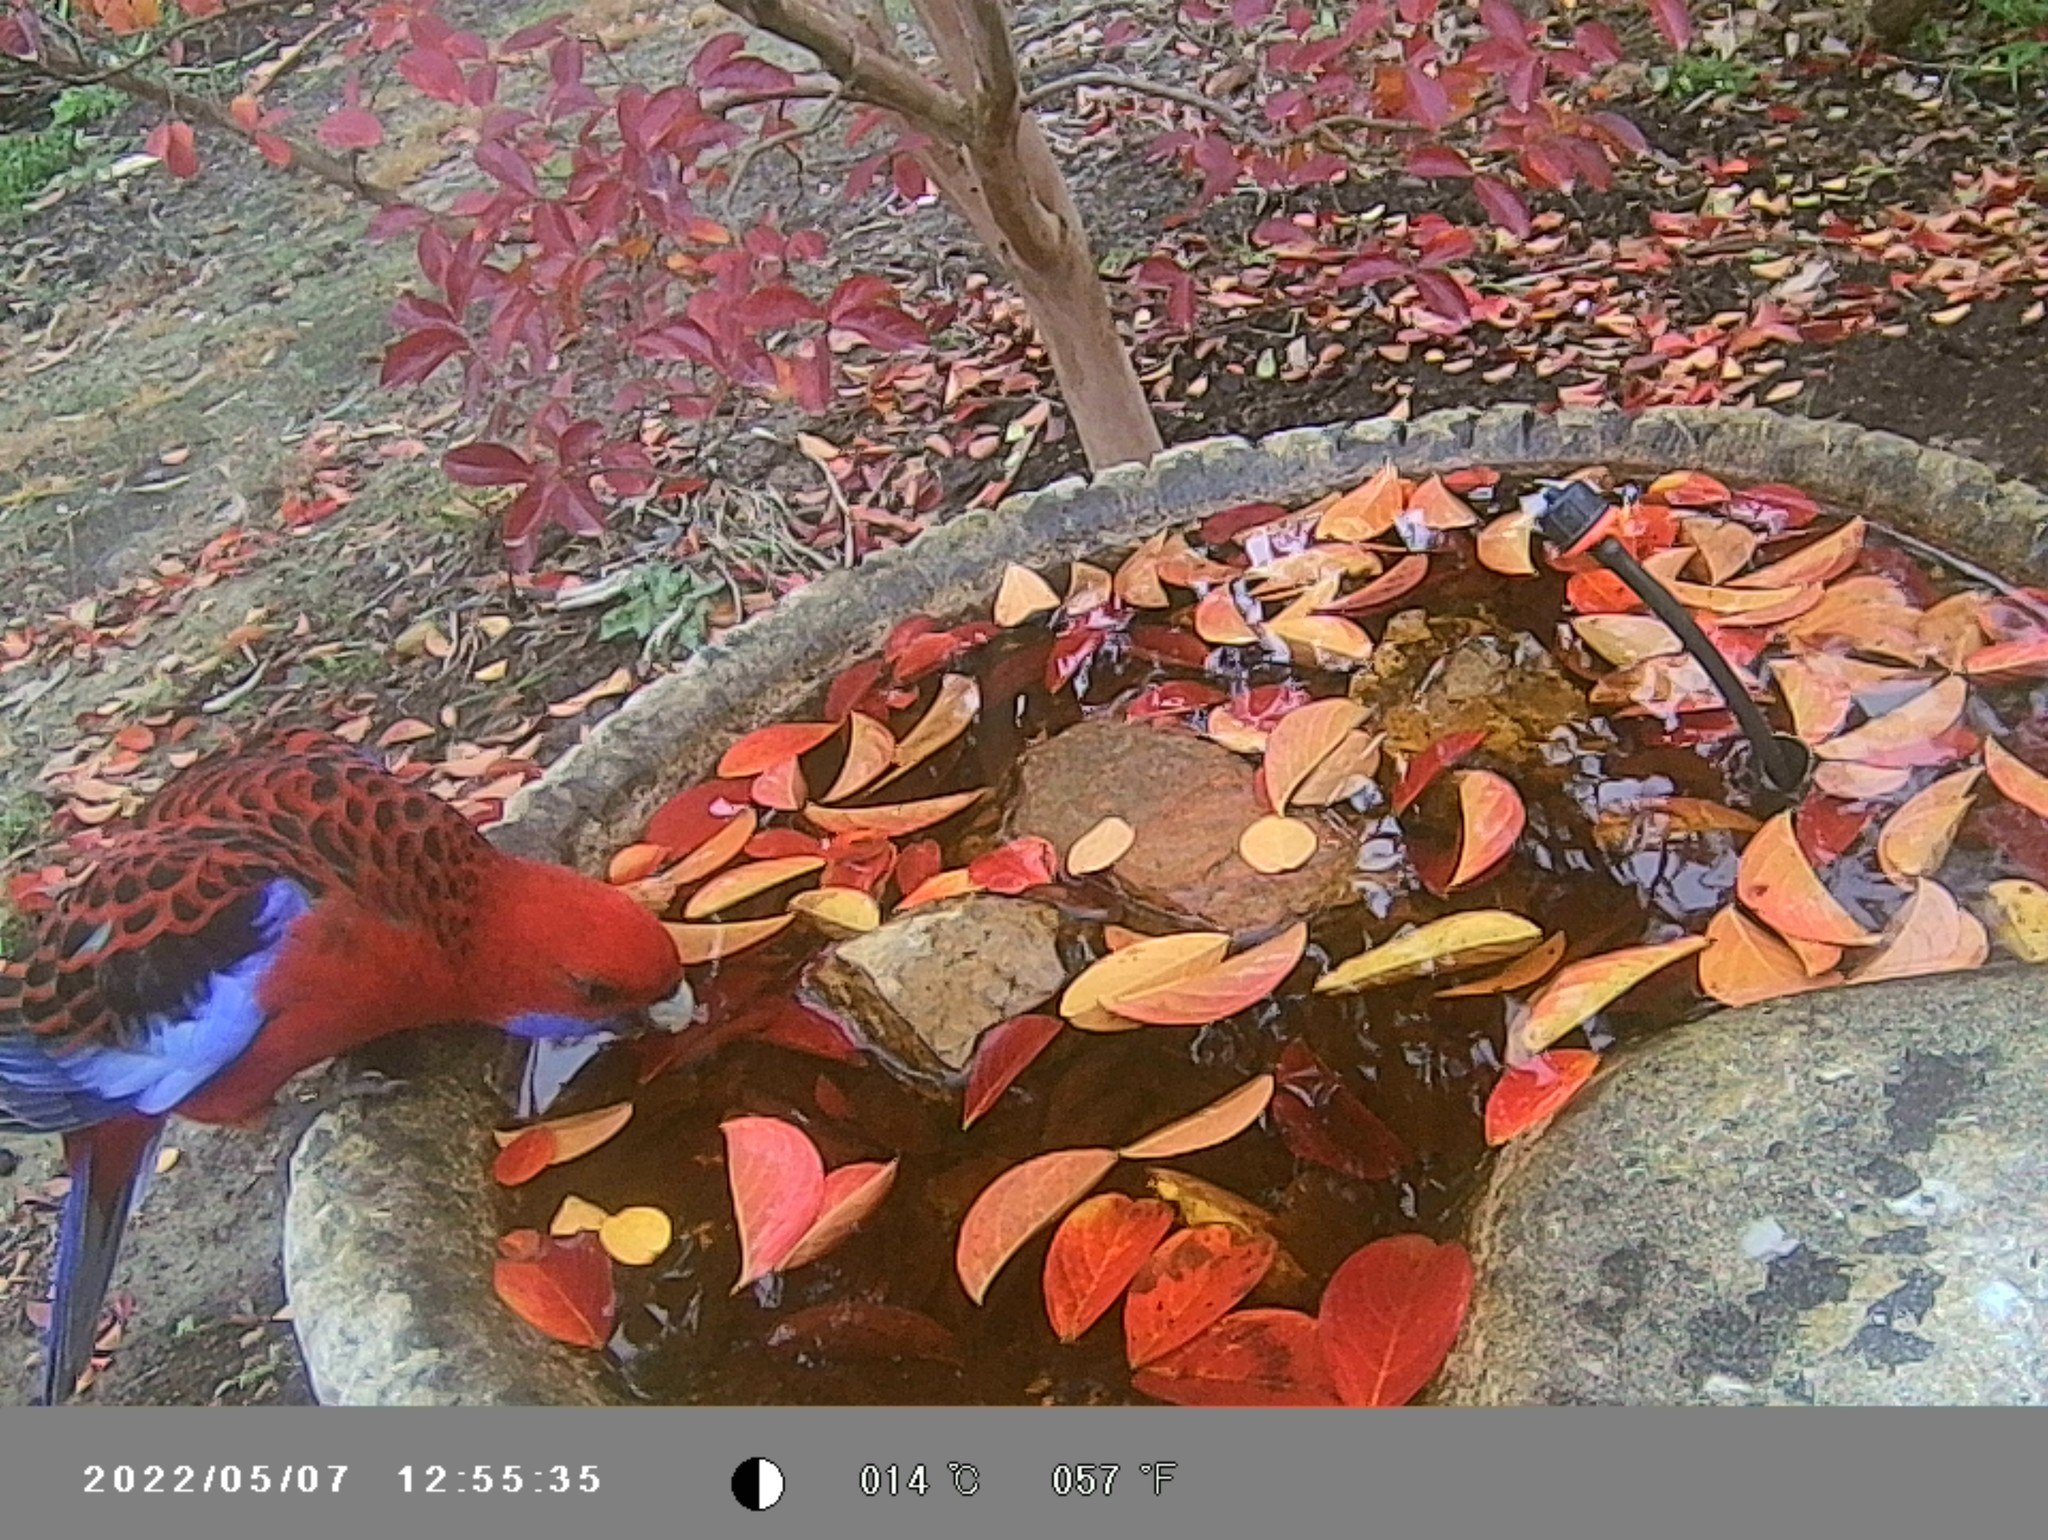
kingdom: Animalia
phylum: Chordata
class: Aves
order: Psittaciformes
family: Psittacidae
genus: Platycercus
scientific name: Platycercus elegans
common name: Crimson rosella
